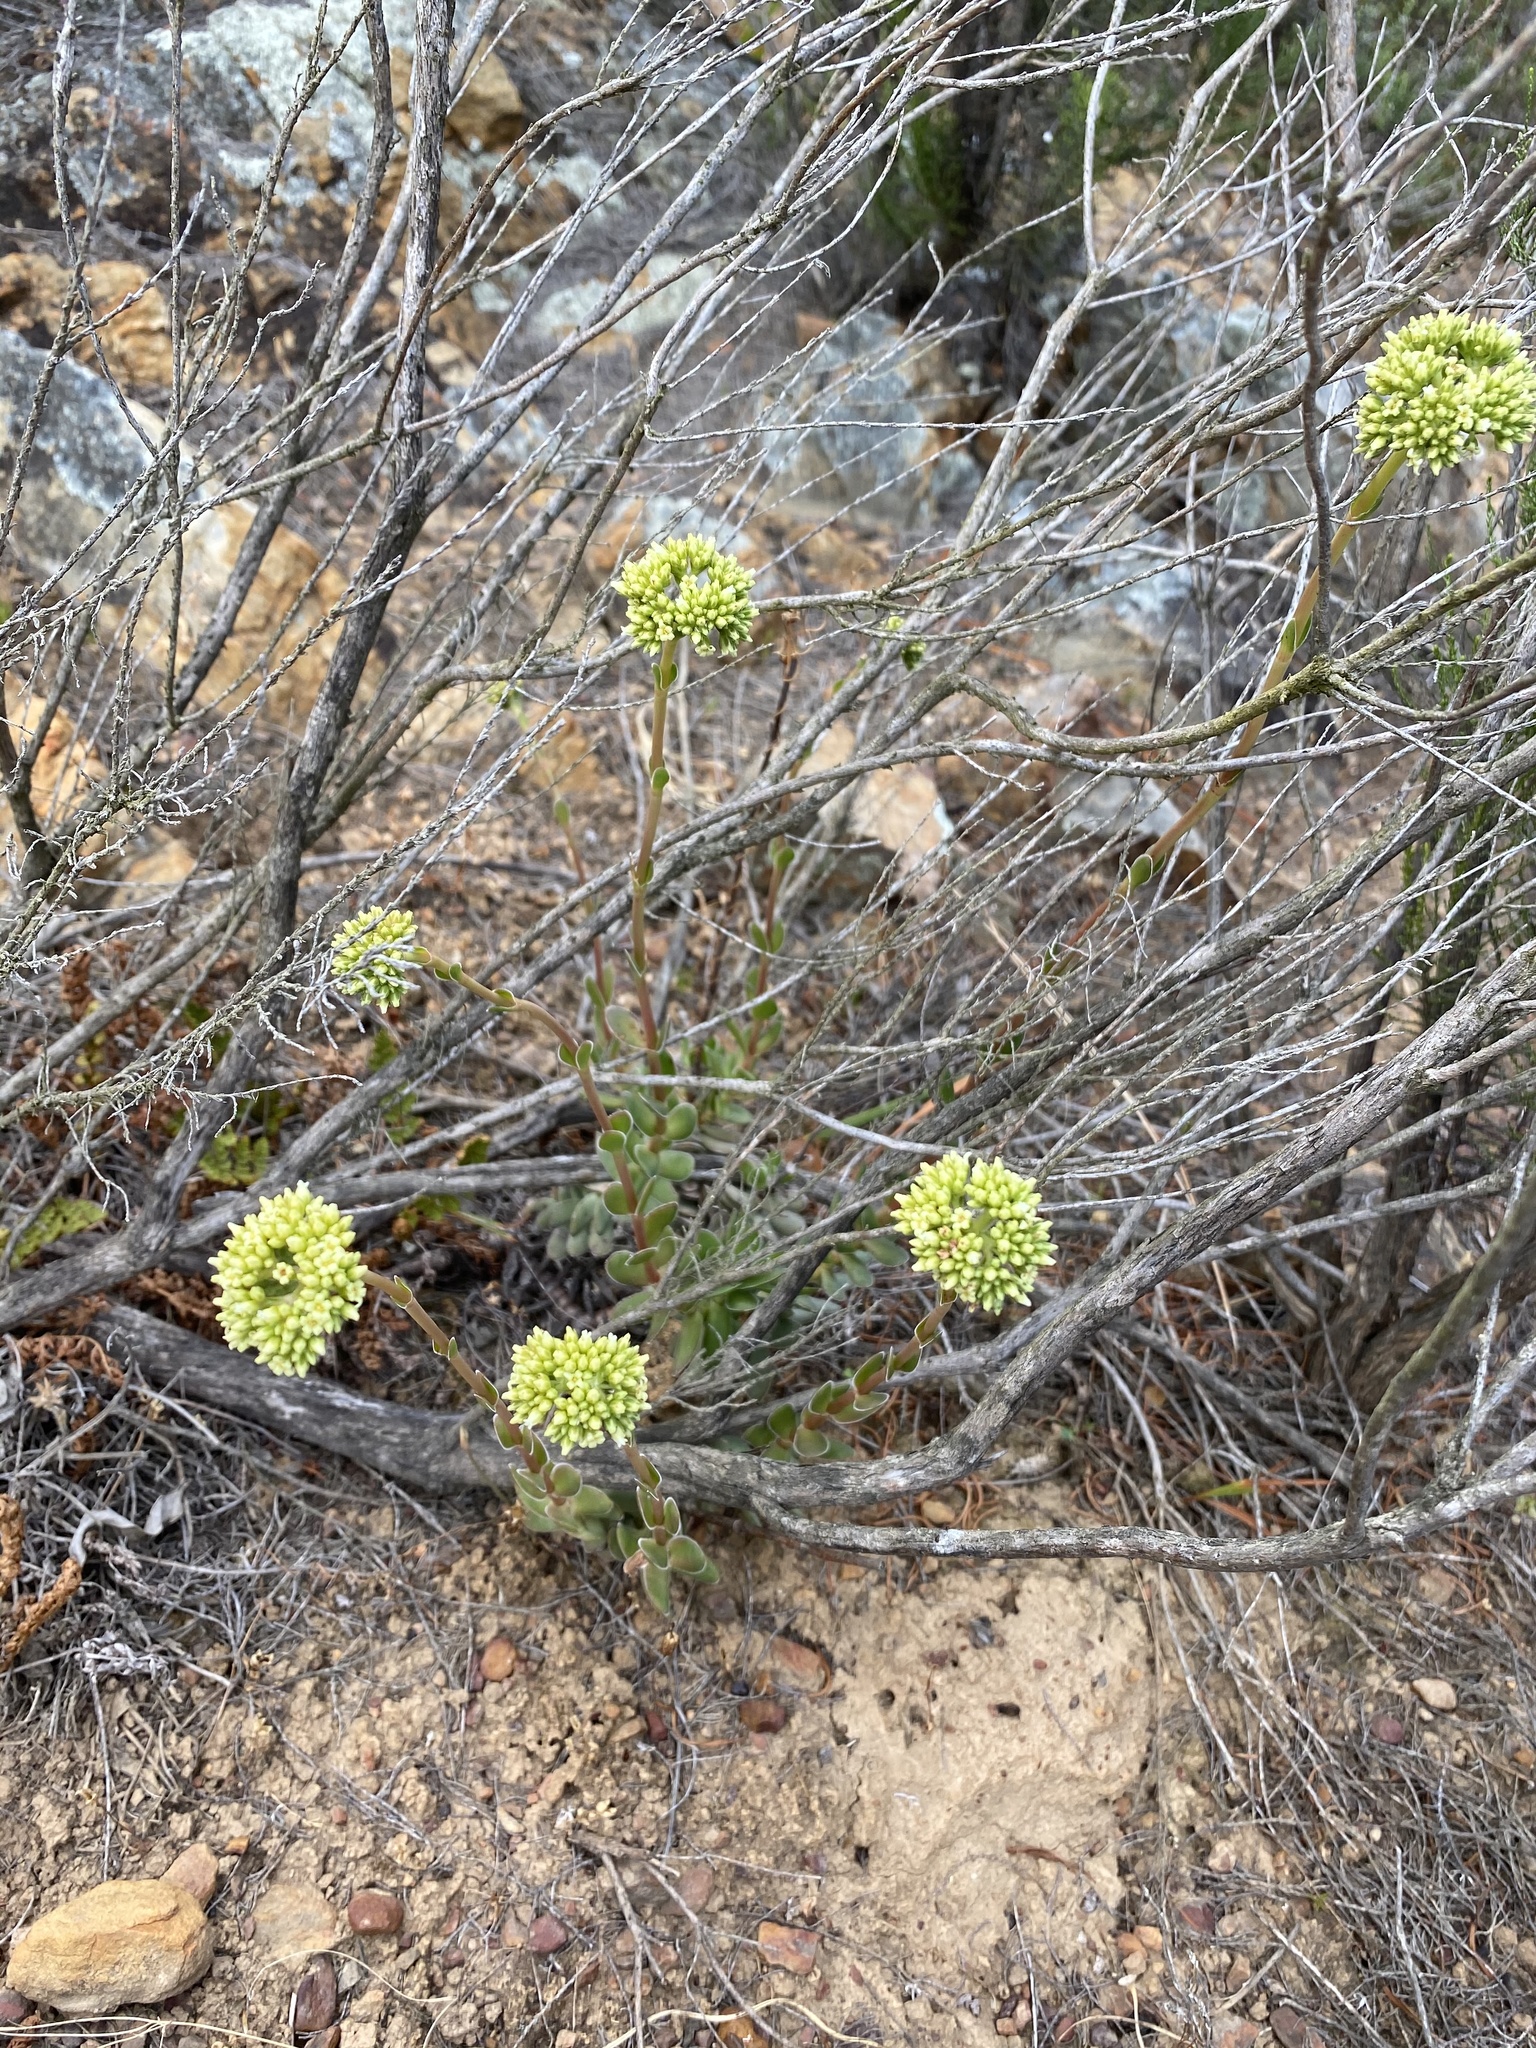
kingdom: Plantae
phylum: Tracheophyta
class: Magnoliopsida
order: Saxifragales
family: Crassulaceae
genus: Crassula
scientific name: Crassula ciliata
